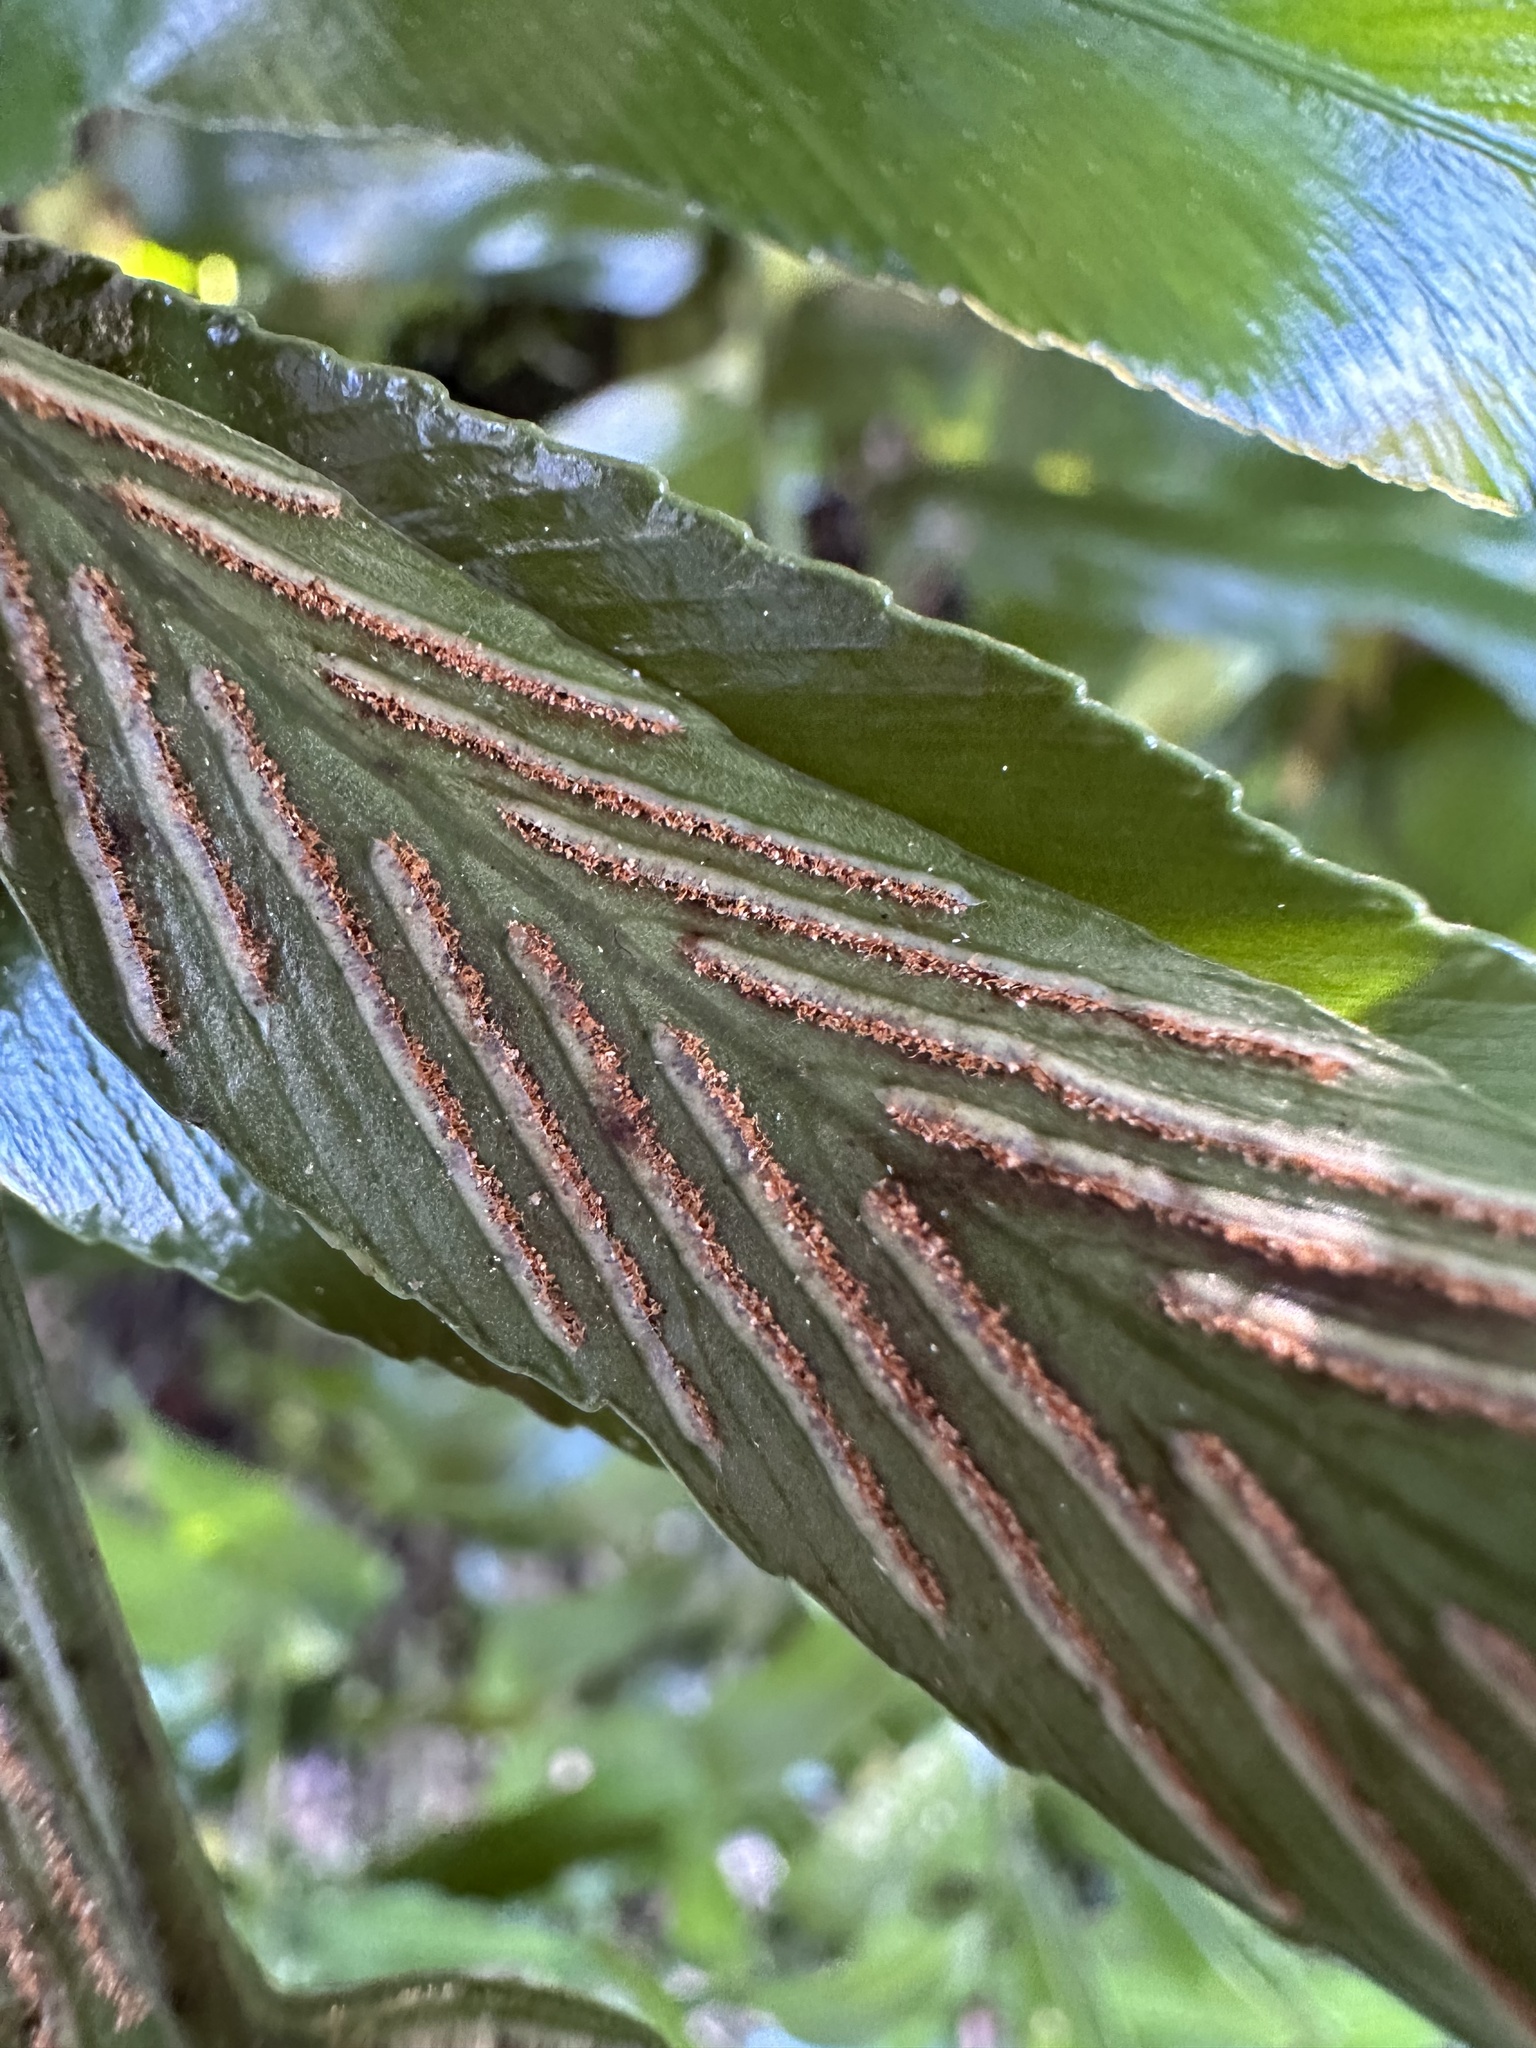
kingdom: Plantae
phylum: Tracheophyta
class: Polypodiopsida
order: Polypodiales
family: Aspleniaceae
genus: Asplenium
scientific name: Asplenium oblongifolium
